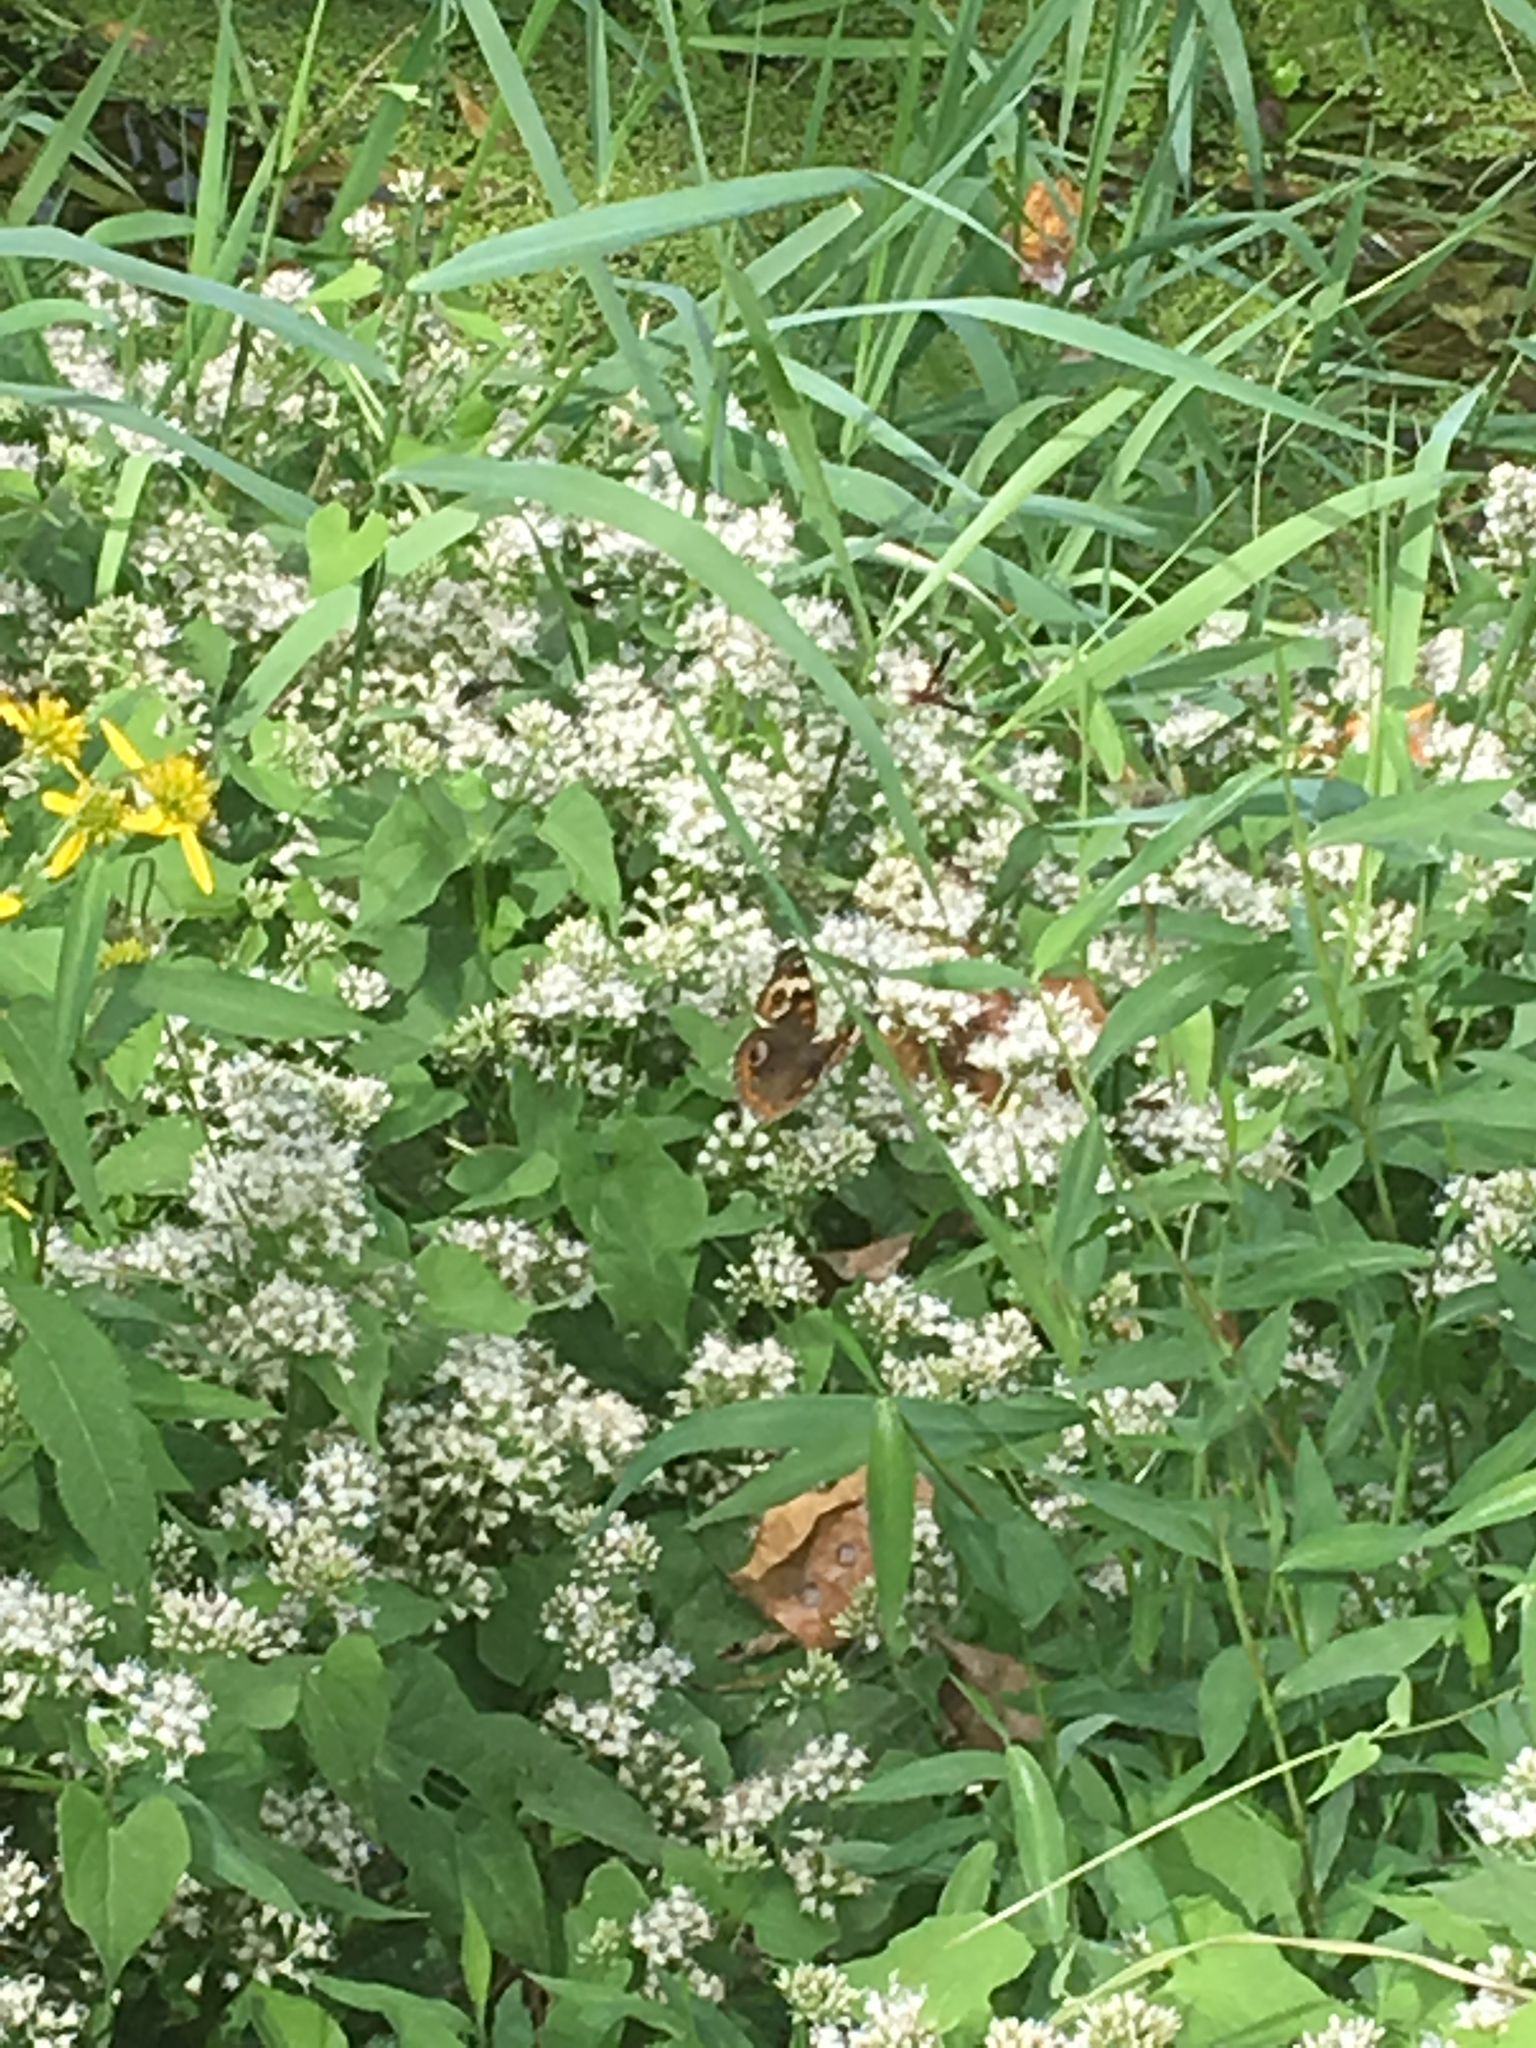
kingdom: Animalia
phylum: Arthropoda
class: Insecta
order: Lepidoptera
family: Nymphalidae
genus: Junonia
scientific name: Junonia coenia
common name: Common buckeye
